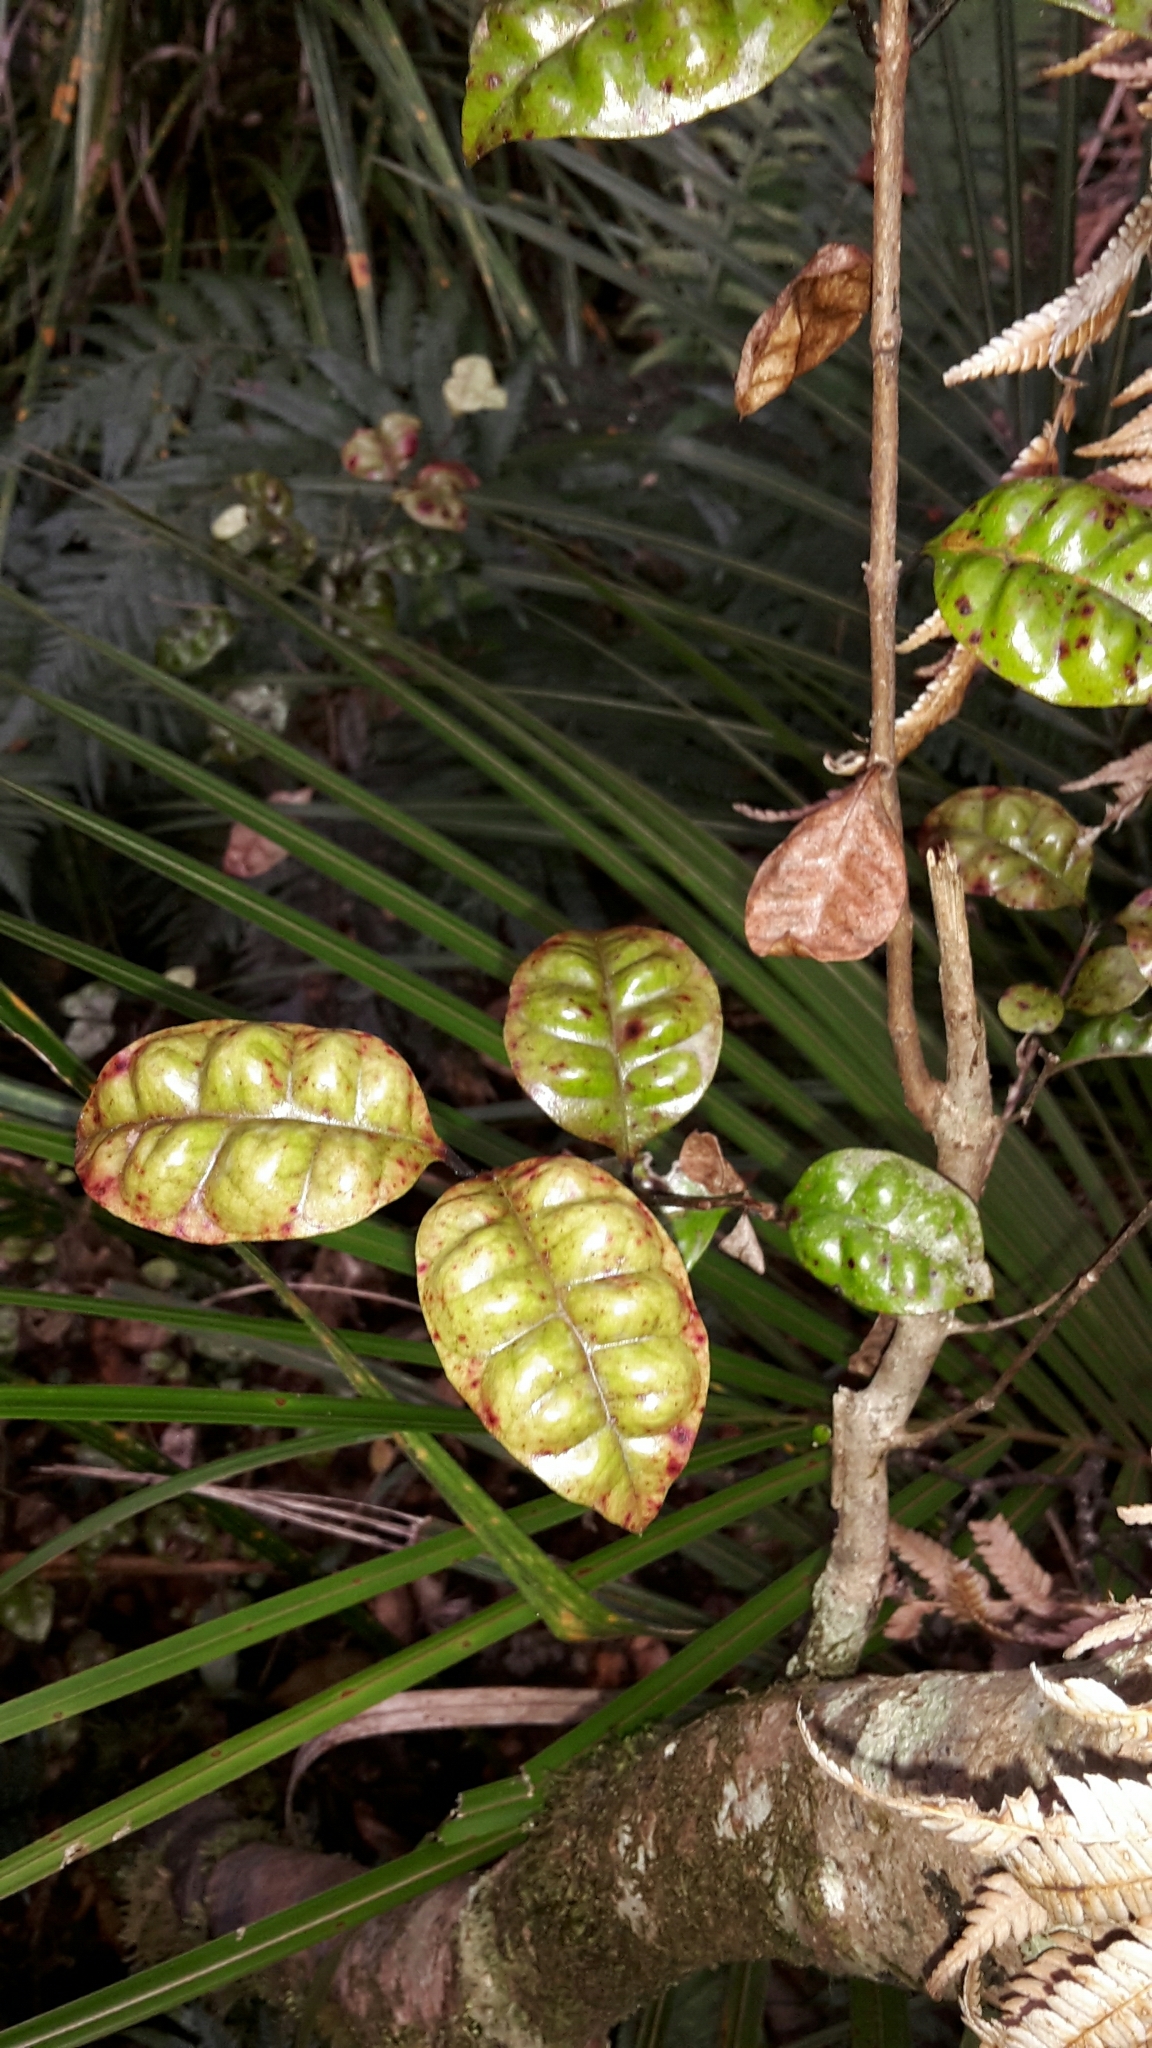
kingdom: Plantae
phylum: Tracheophyta
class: Magnoliopsida
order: Myrtales
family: Myrtaceae
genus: Lophomyrtus
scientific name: Lophomyrtus bullata
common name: Rama rama
